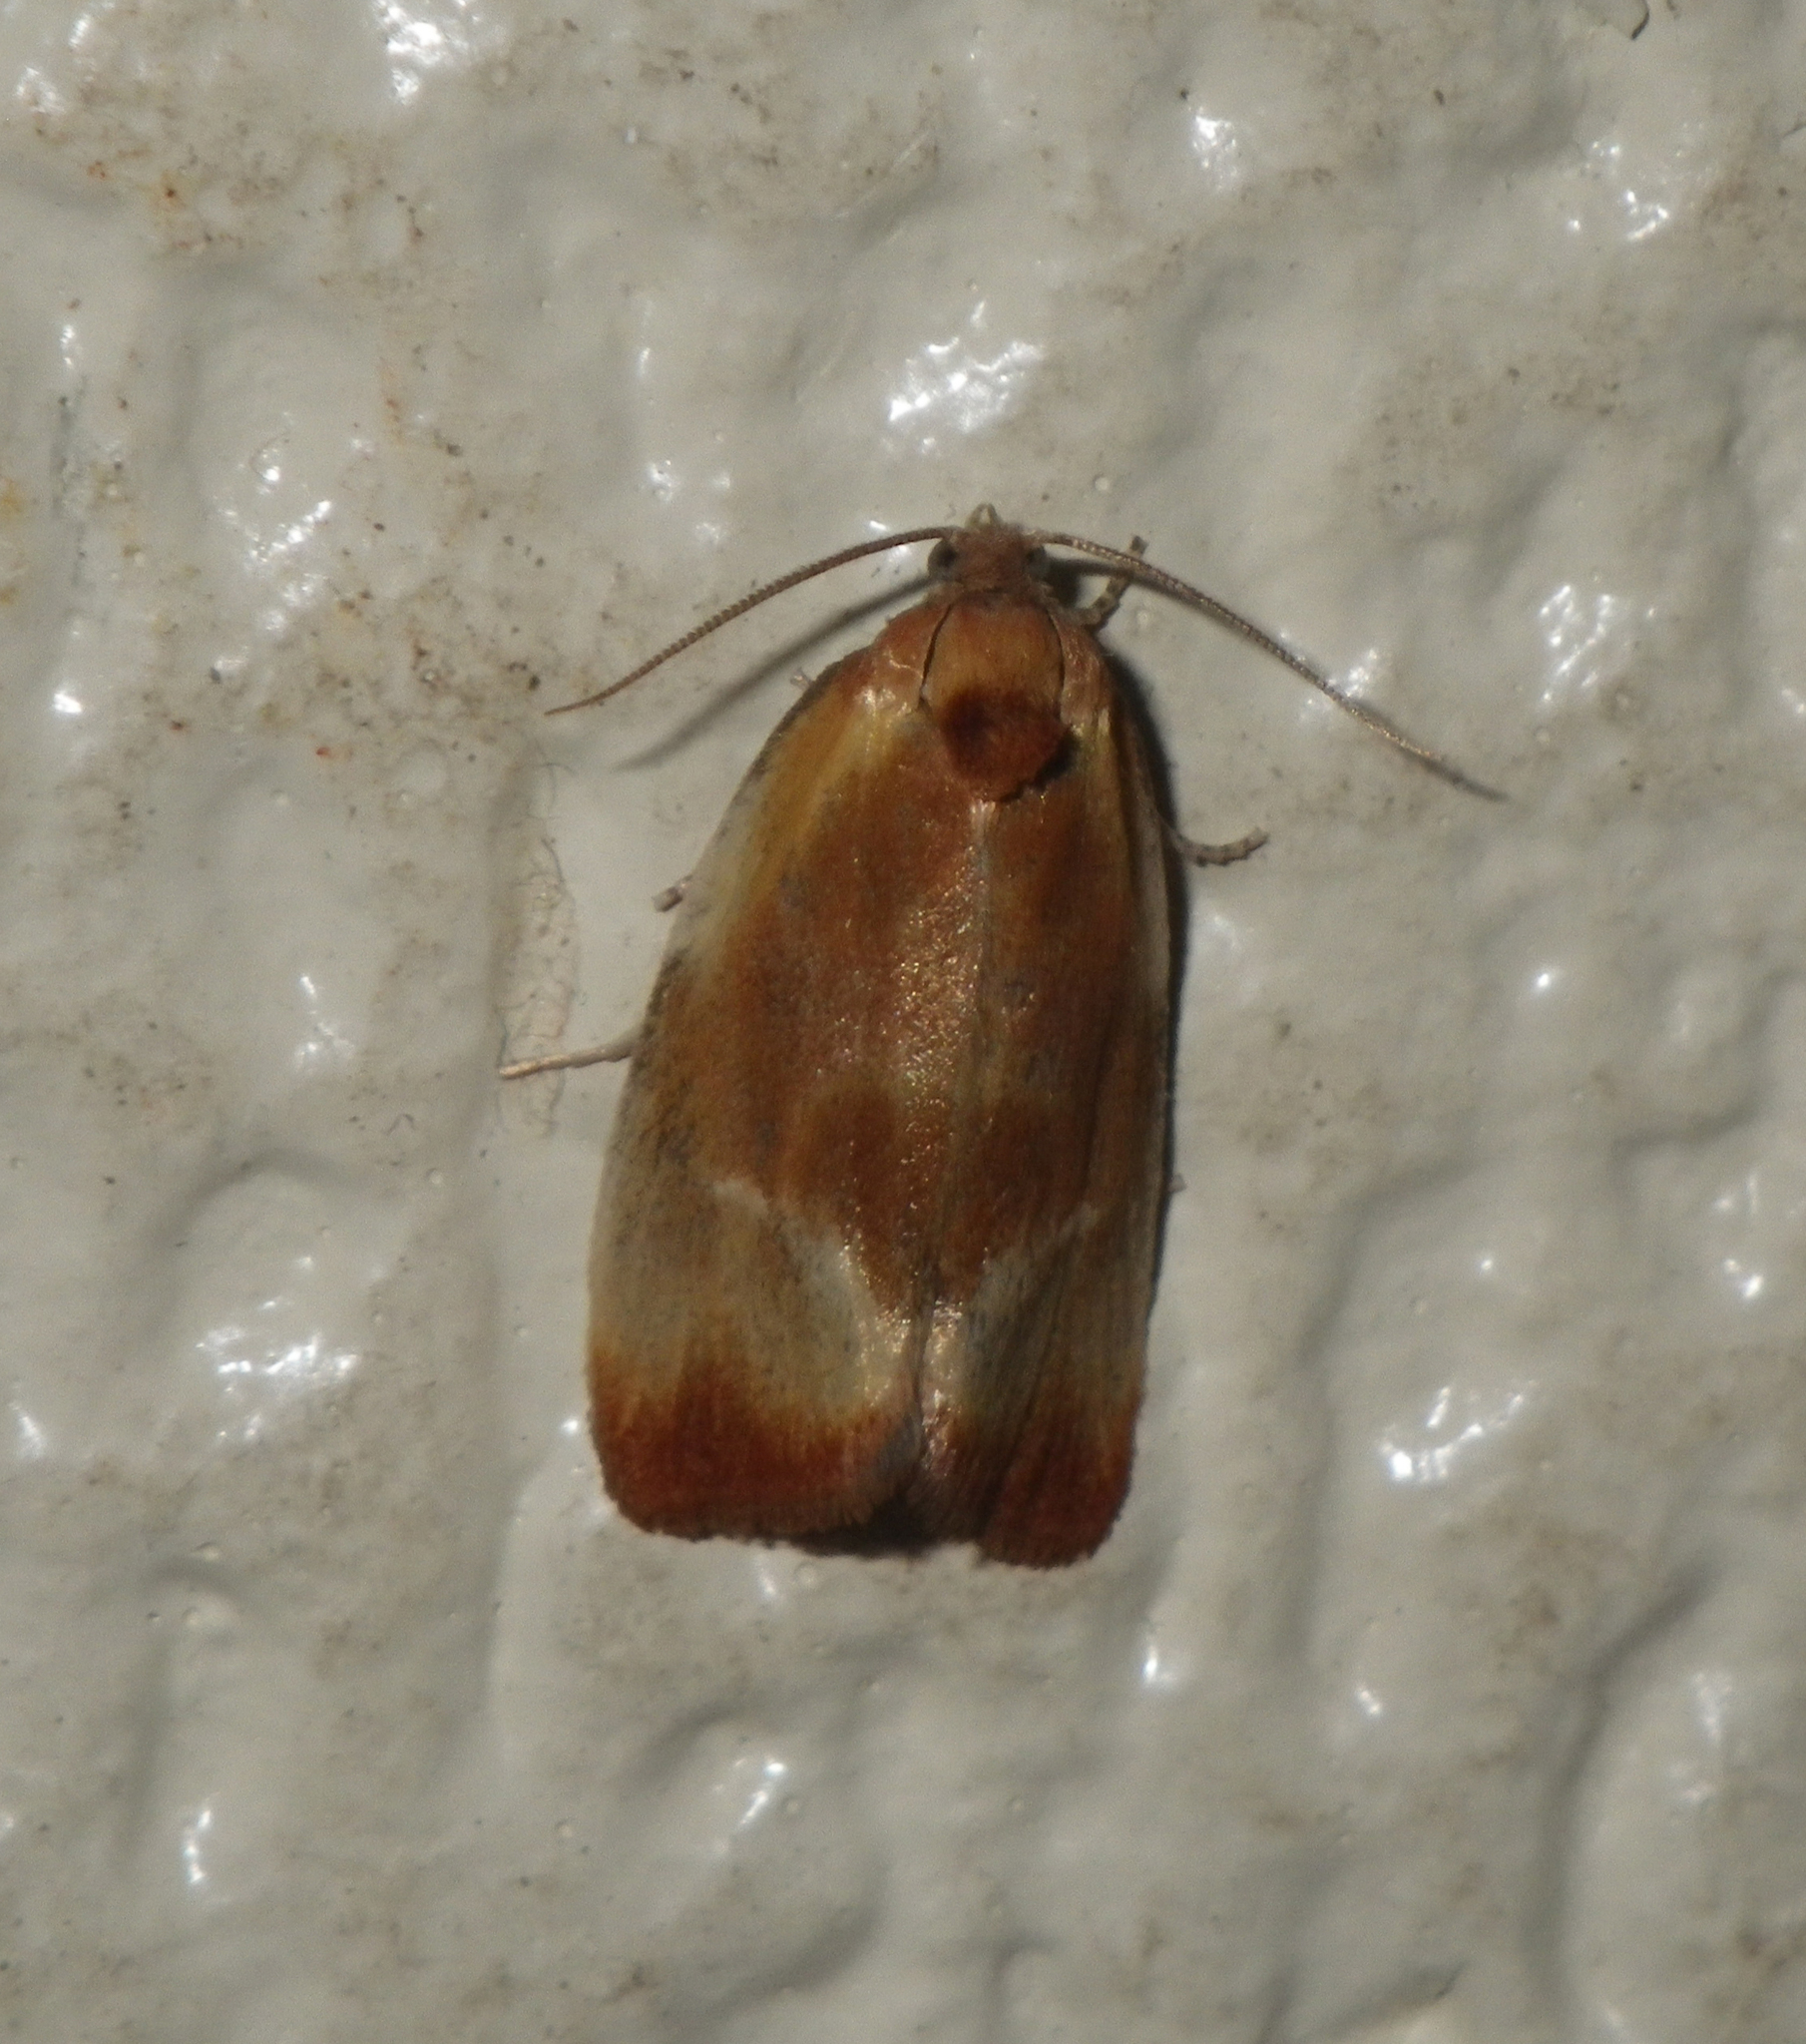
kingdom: Animalia
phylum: Arthropoda
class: Insecta
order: Lepidoptera
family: Tortricidae
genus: Eulia
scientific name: Eulia ministrana
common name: Brassy twist
